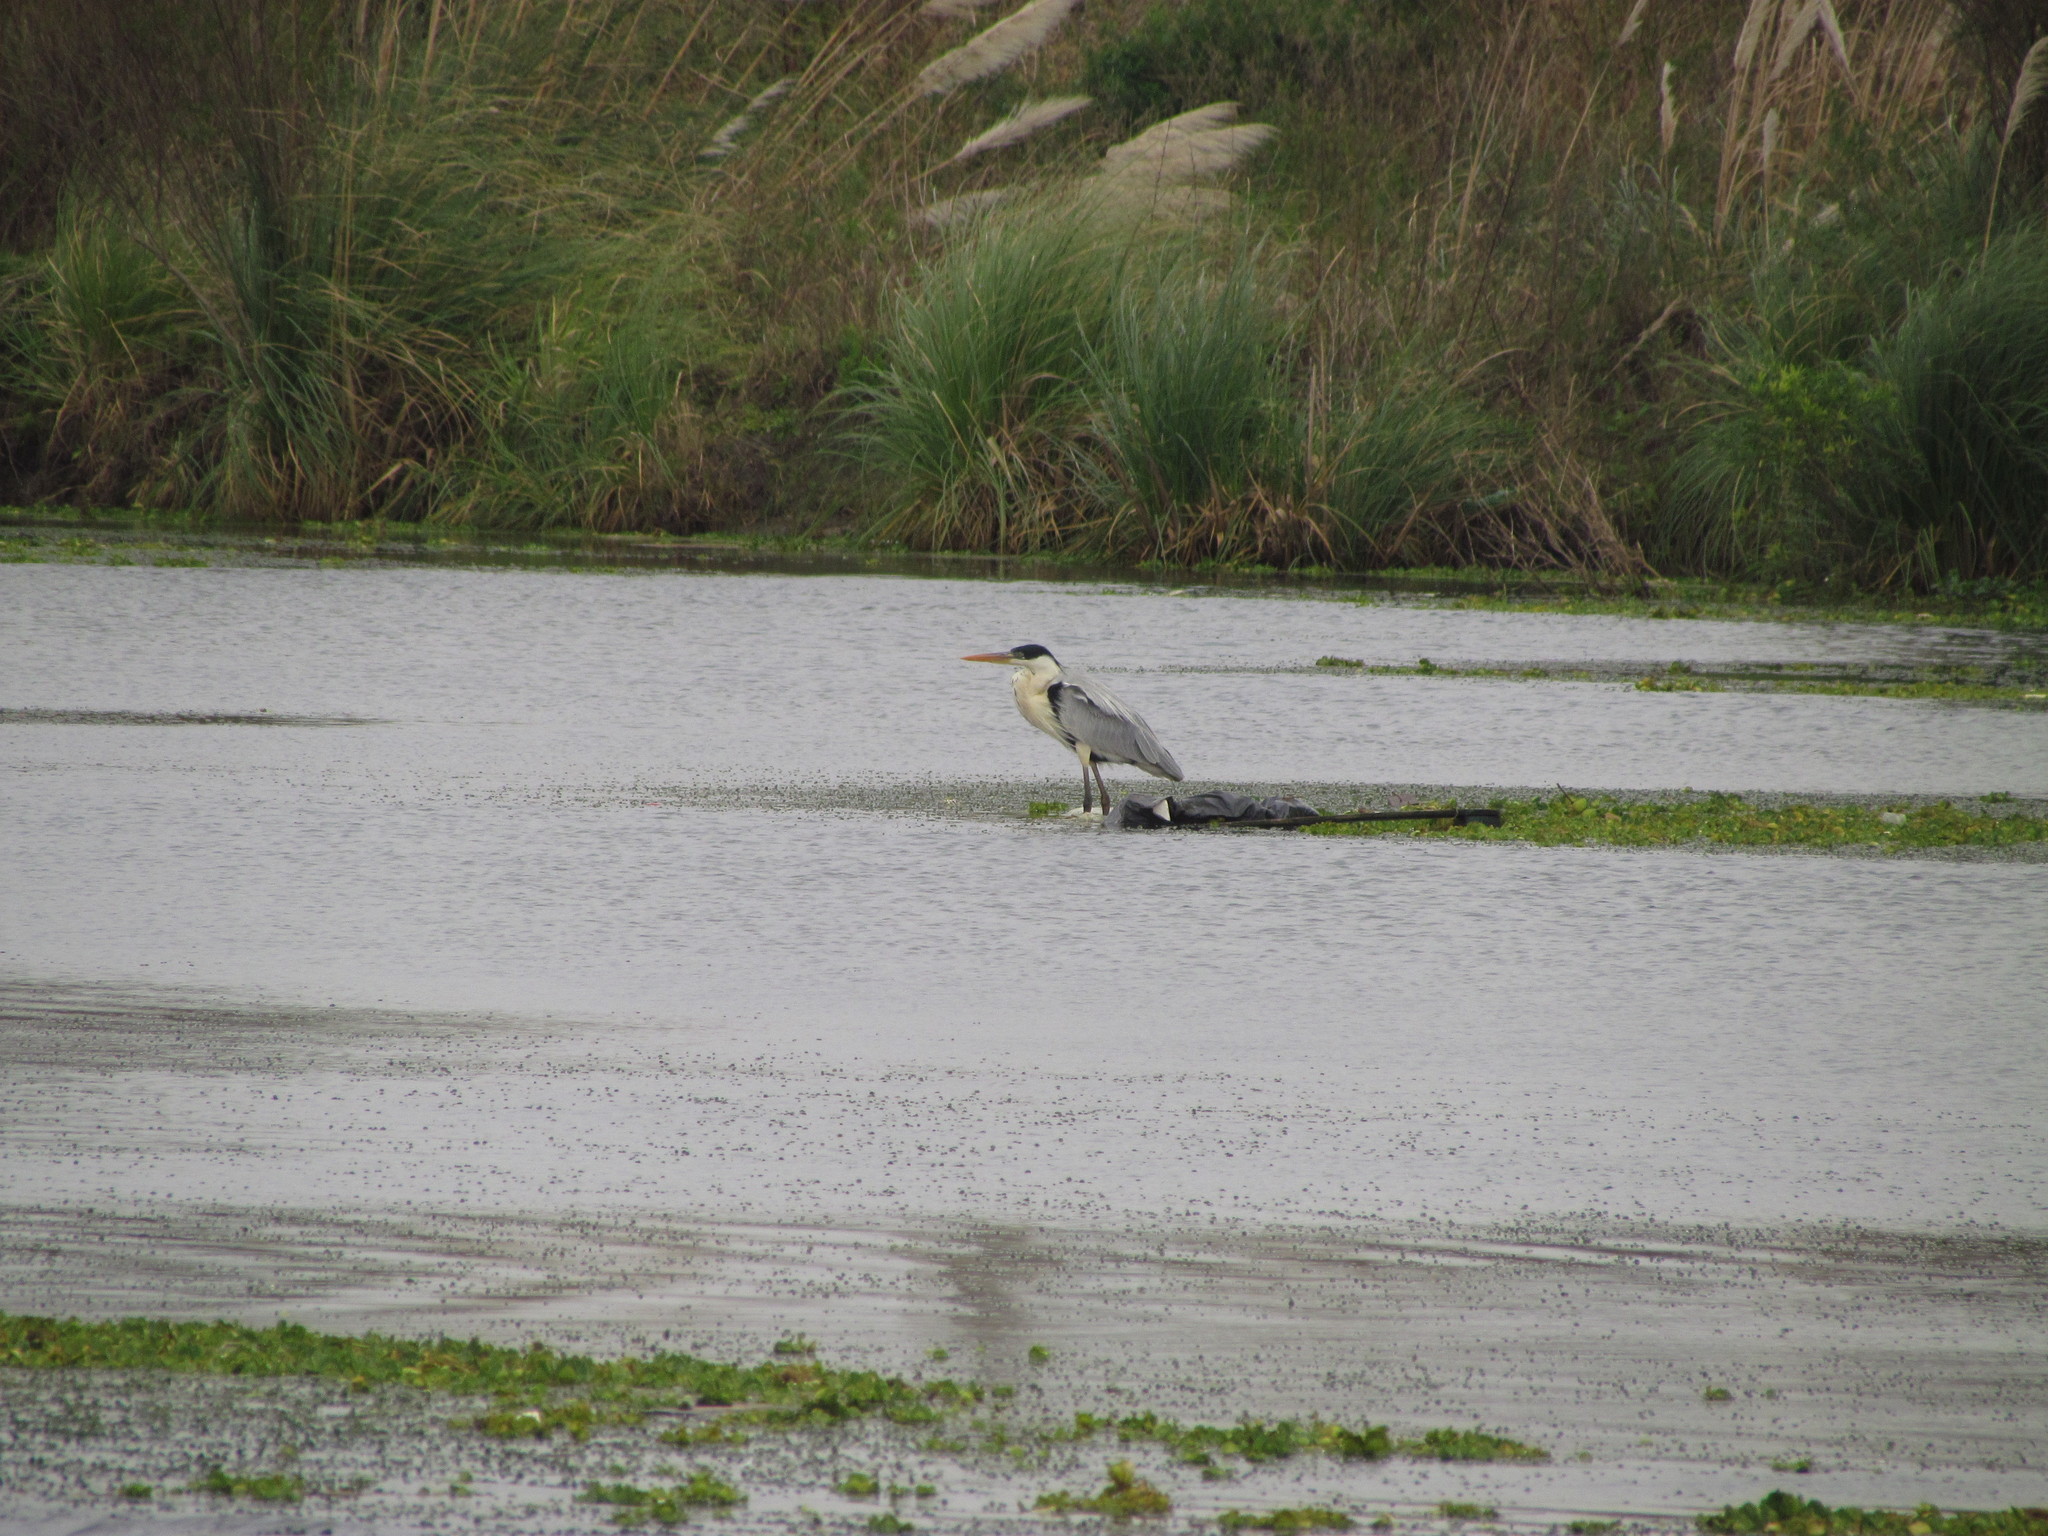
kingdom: Animalia
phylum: Chordata
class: Aves
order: Pelecaniformes
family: Ardeidae
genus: Ardea
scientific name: Ardea cocoi
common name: Cocoi heron
